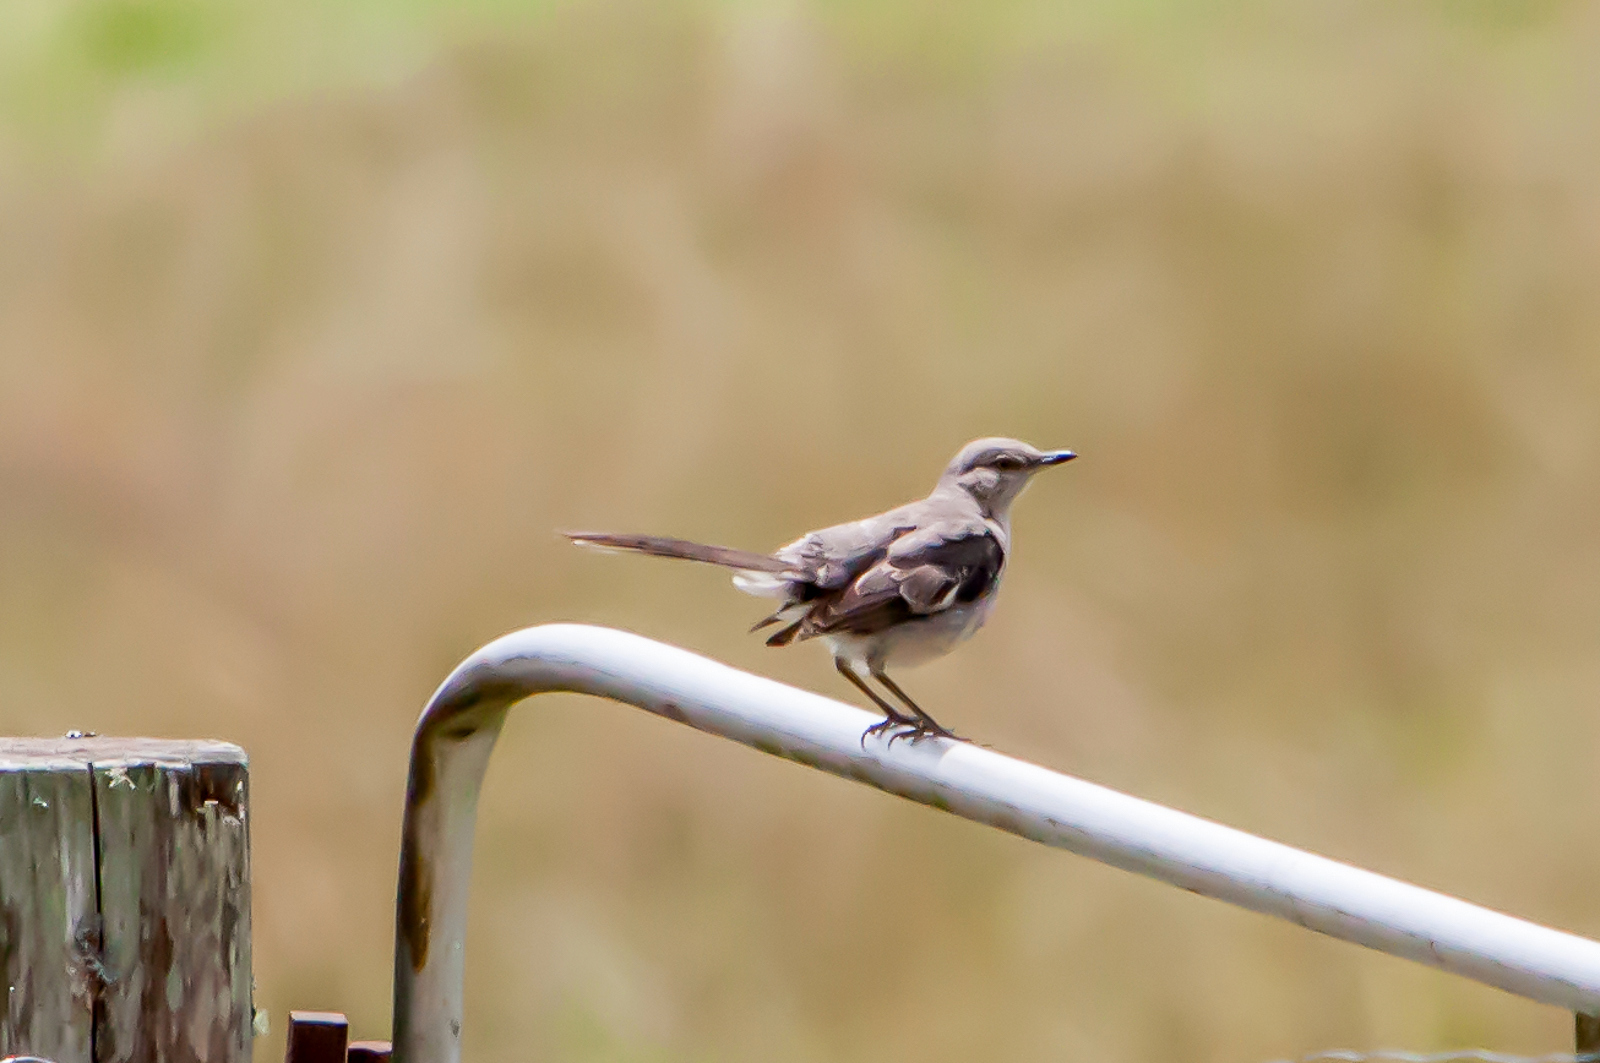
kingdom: Animalia
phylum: Chordata
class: Aves
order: Passeriformes
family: Mimidae
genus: Mimus
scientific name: Mimus polyglottos
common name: Northern mockingbird
